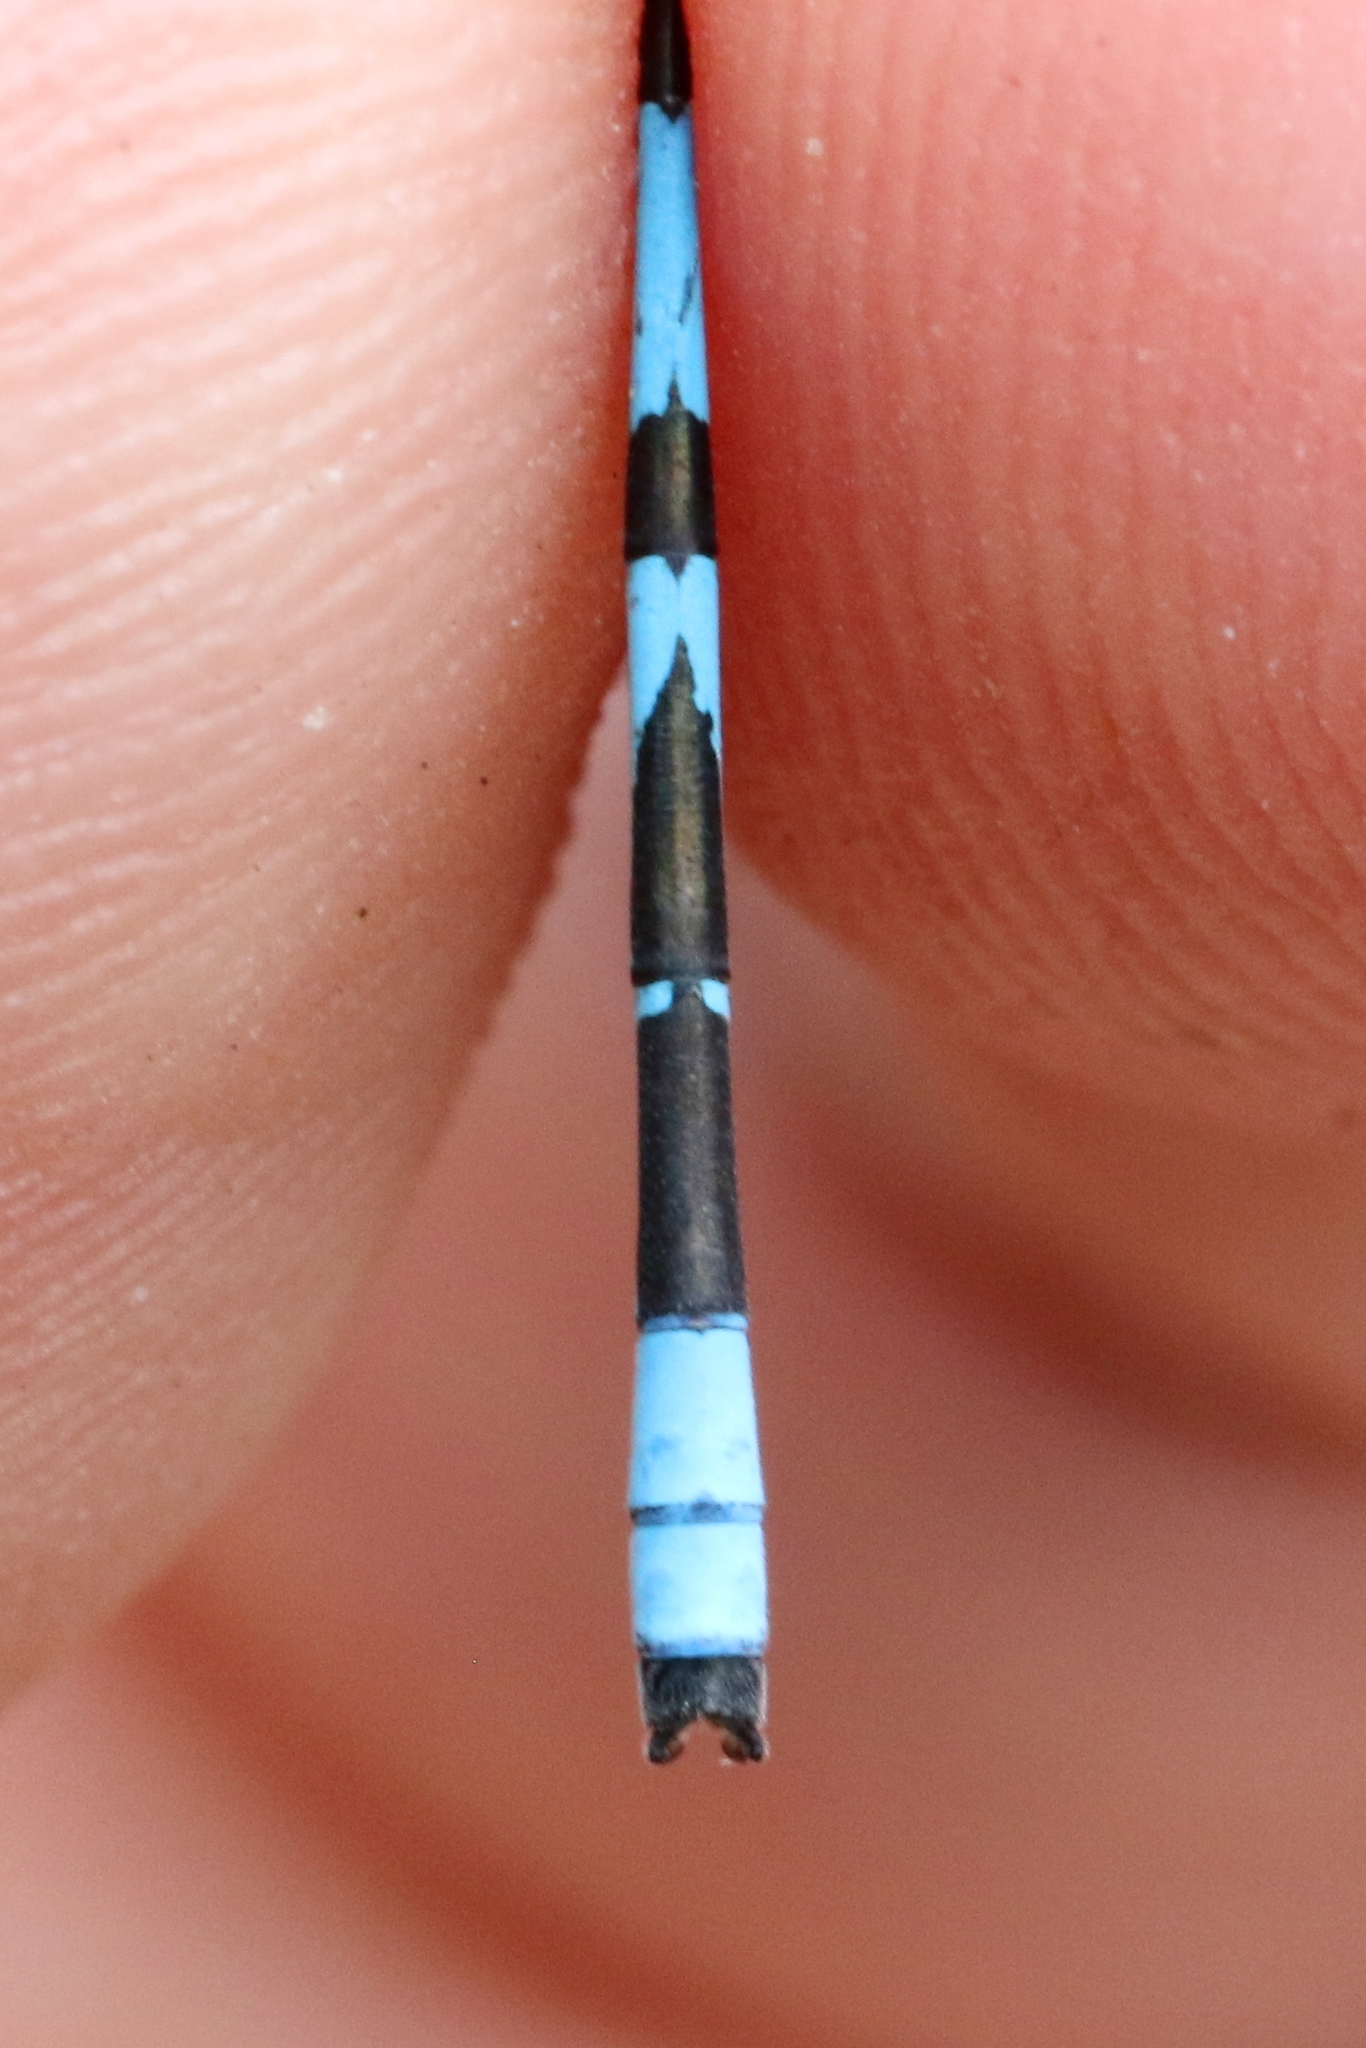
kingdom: Animalia
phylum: Arthropoda
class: Insecta
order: Odonata
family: Coenagrionidae
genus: Enallagma
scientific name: Enallagma ebrium
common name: Marsh bluet
